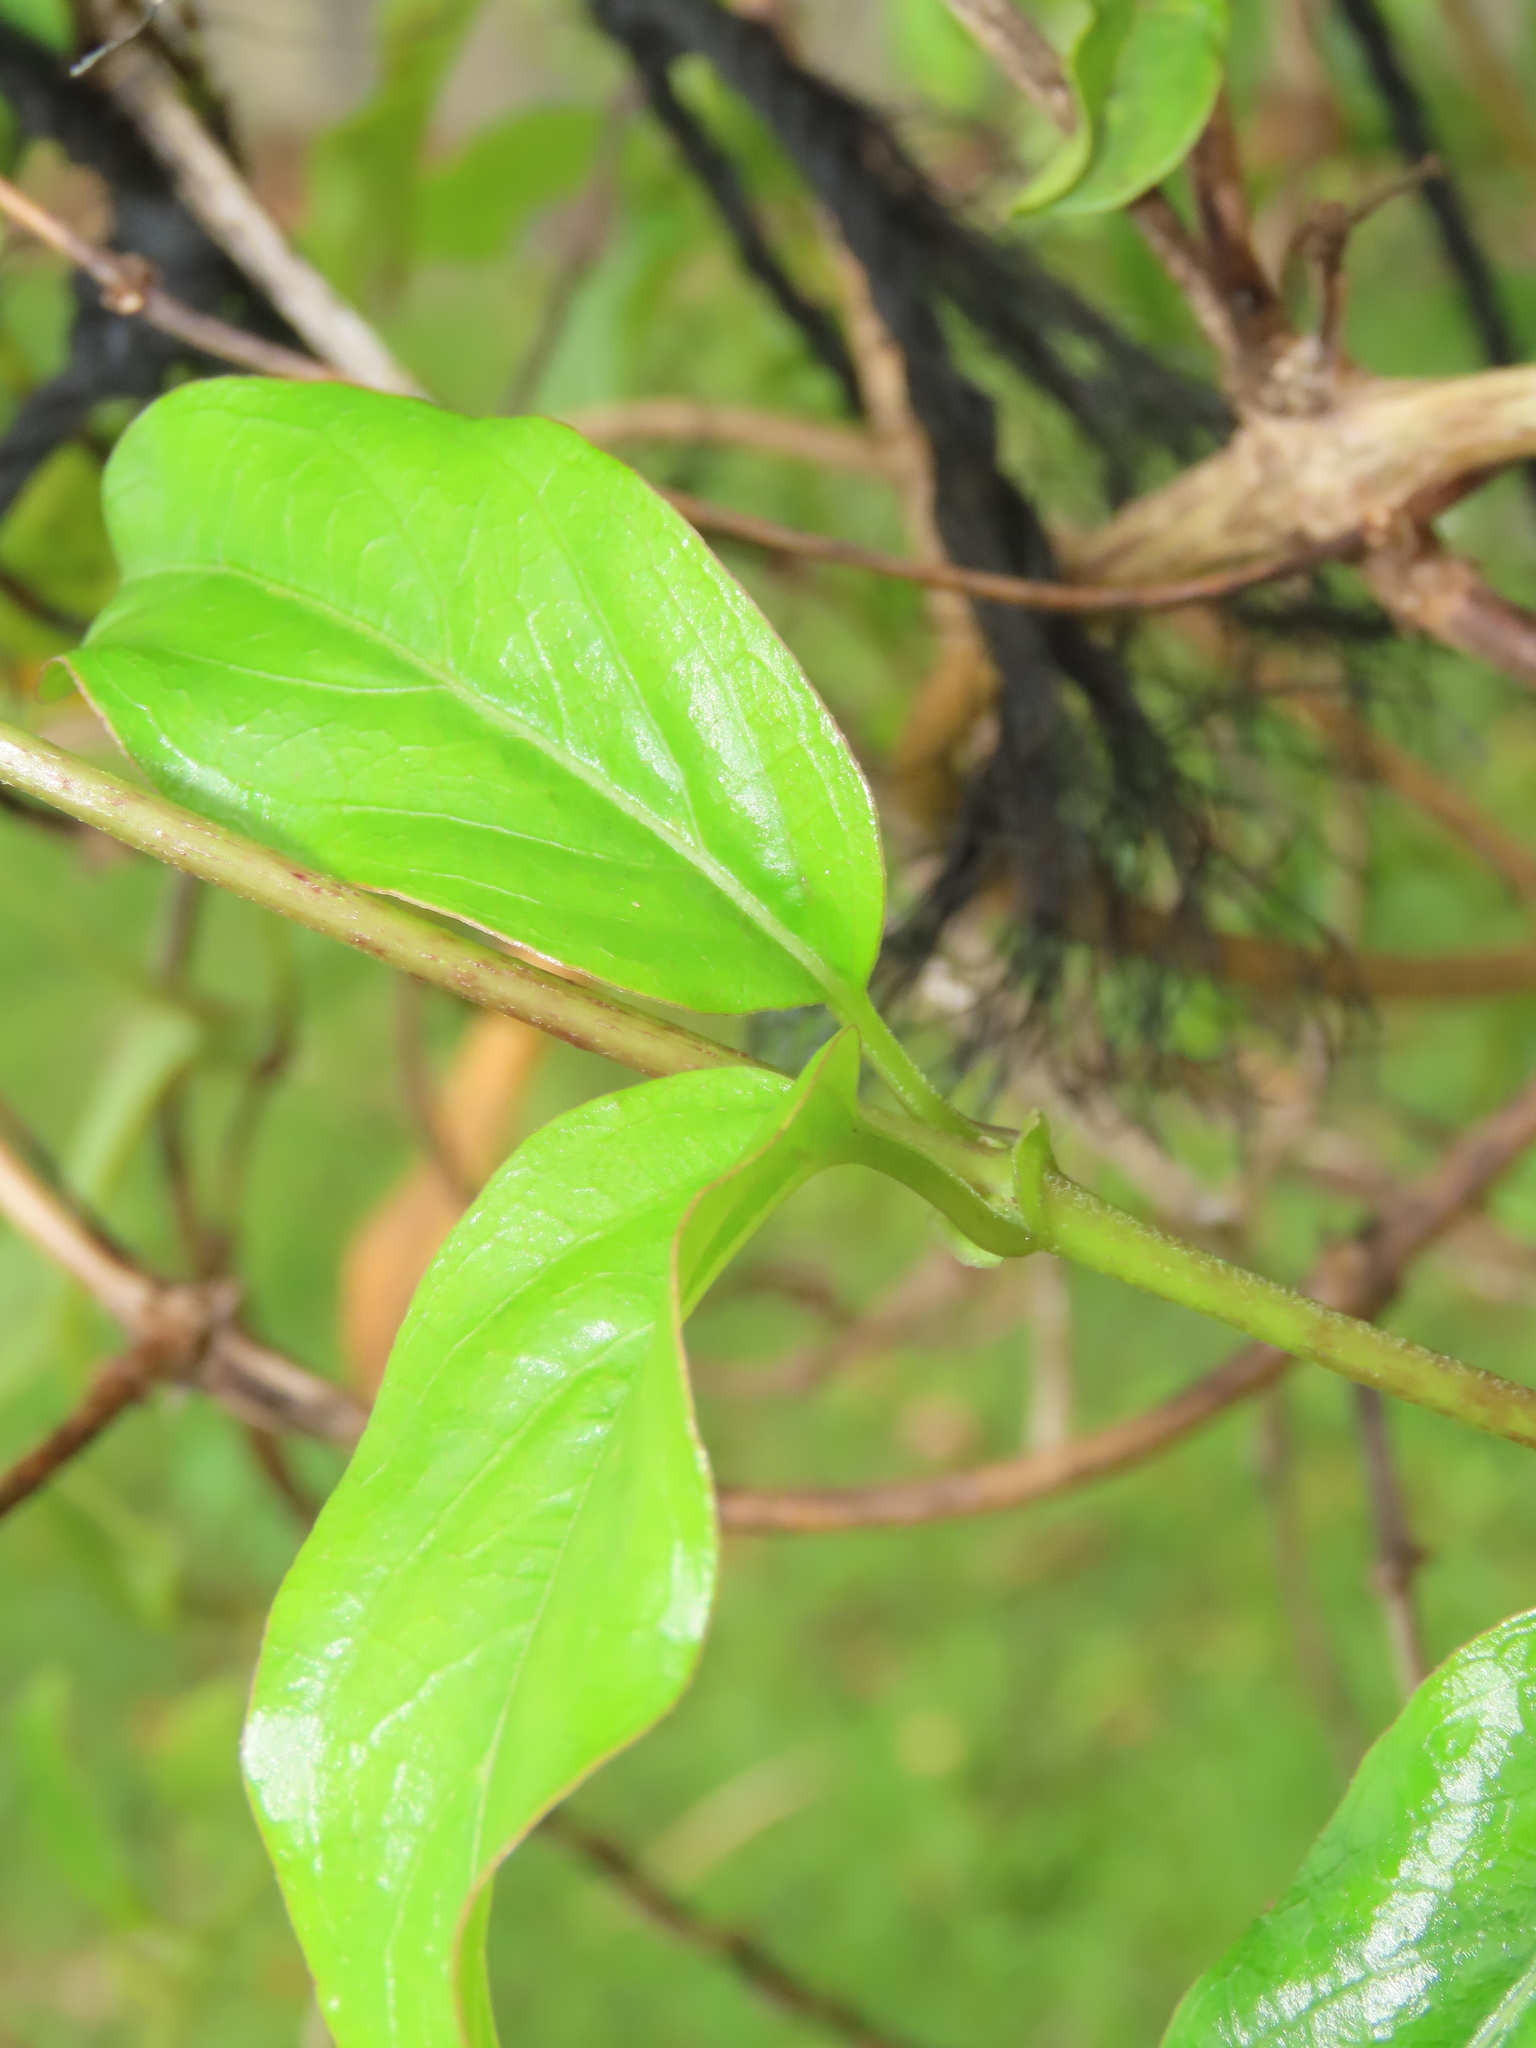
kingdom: Plantae
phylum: Tracheophyta
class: Magnoliopsida
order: Gentianales
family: Rubiaceae
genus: Paederia
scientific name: Paederia foetida
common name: Stinkvine
